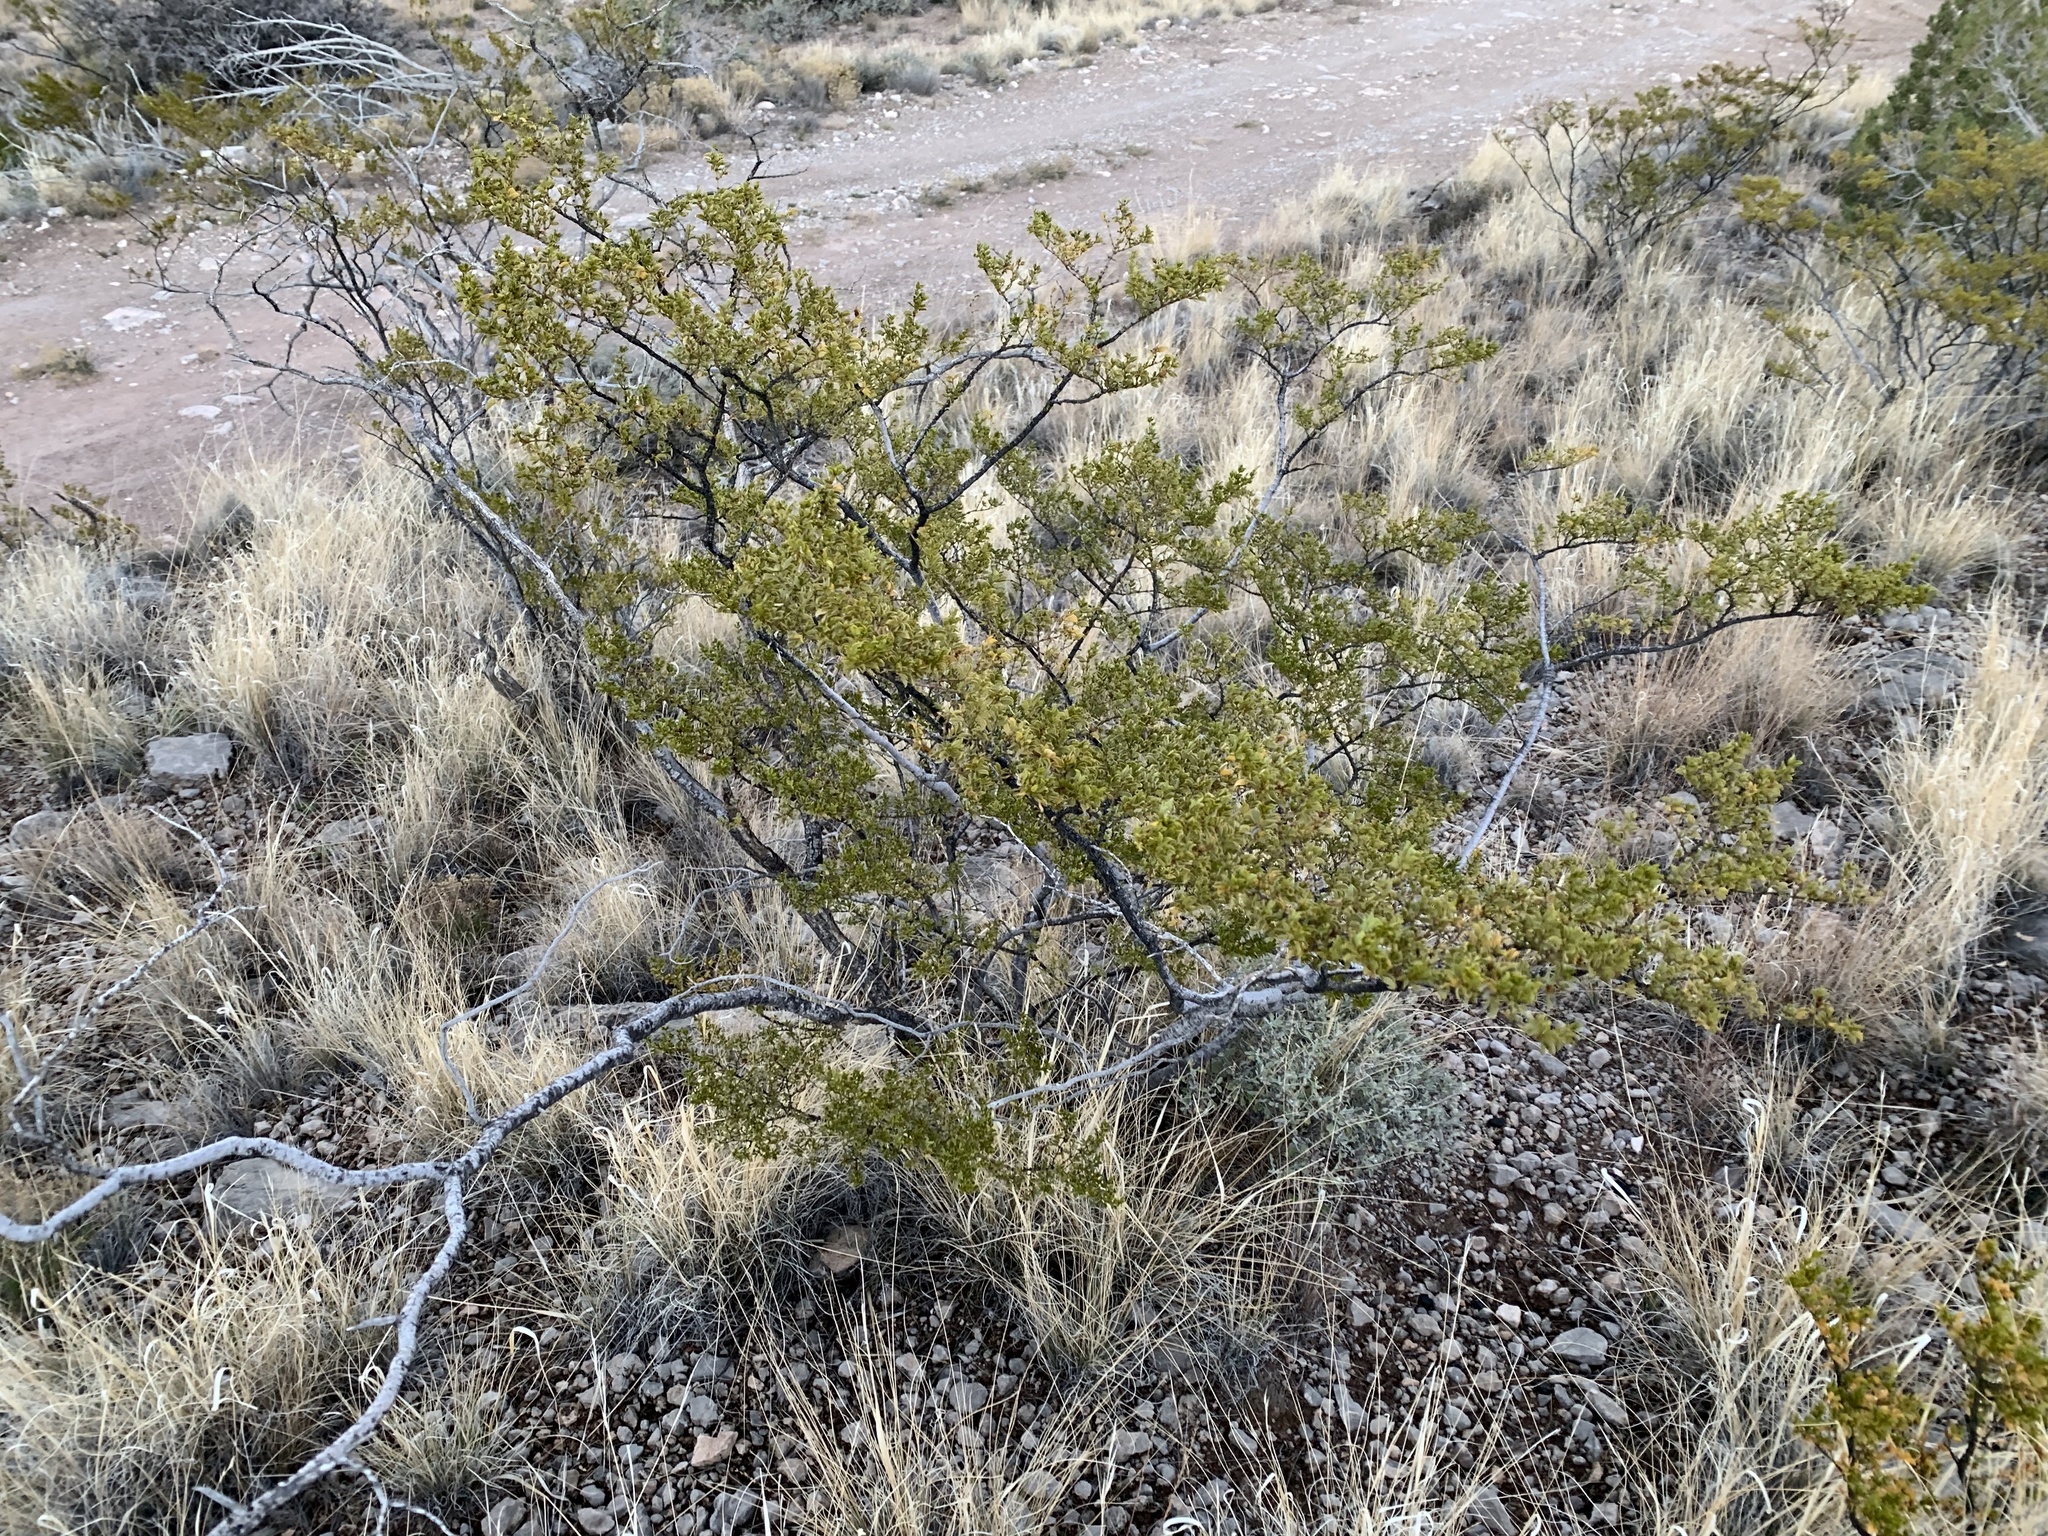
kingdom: Plantae
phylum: Tracheophyta
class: Magnoliopsida
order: Zygophyllales
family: Zygophyllaceae
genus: Larrea
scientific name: Larrea tridentata
